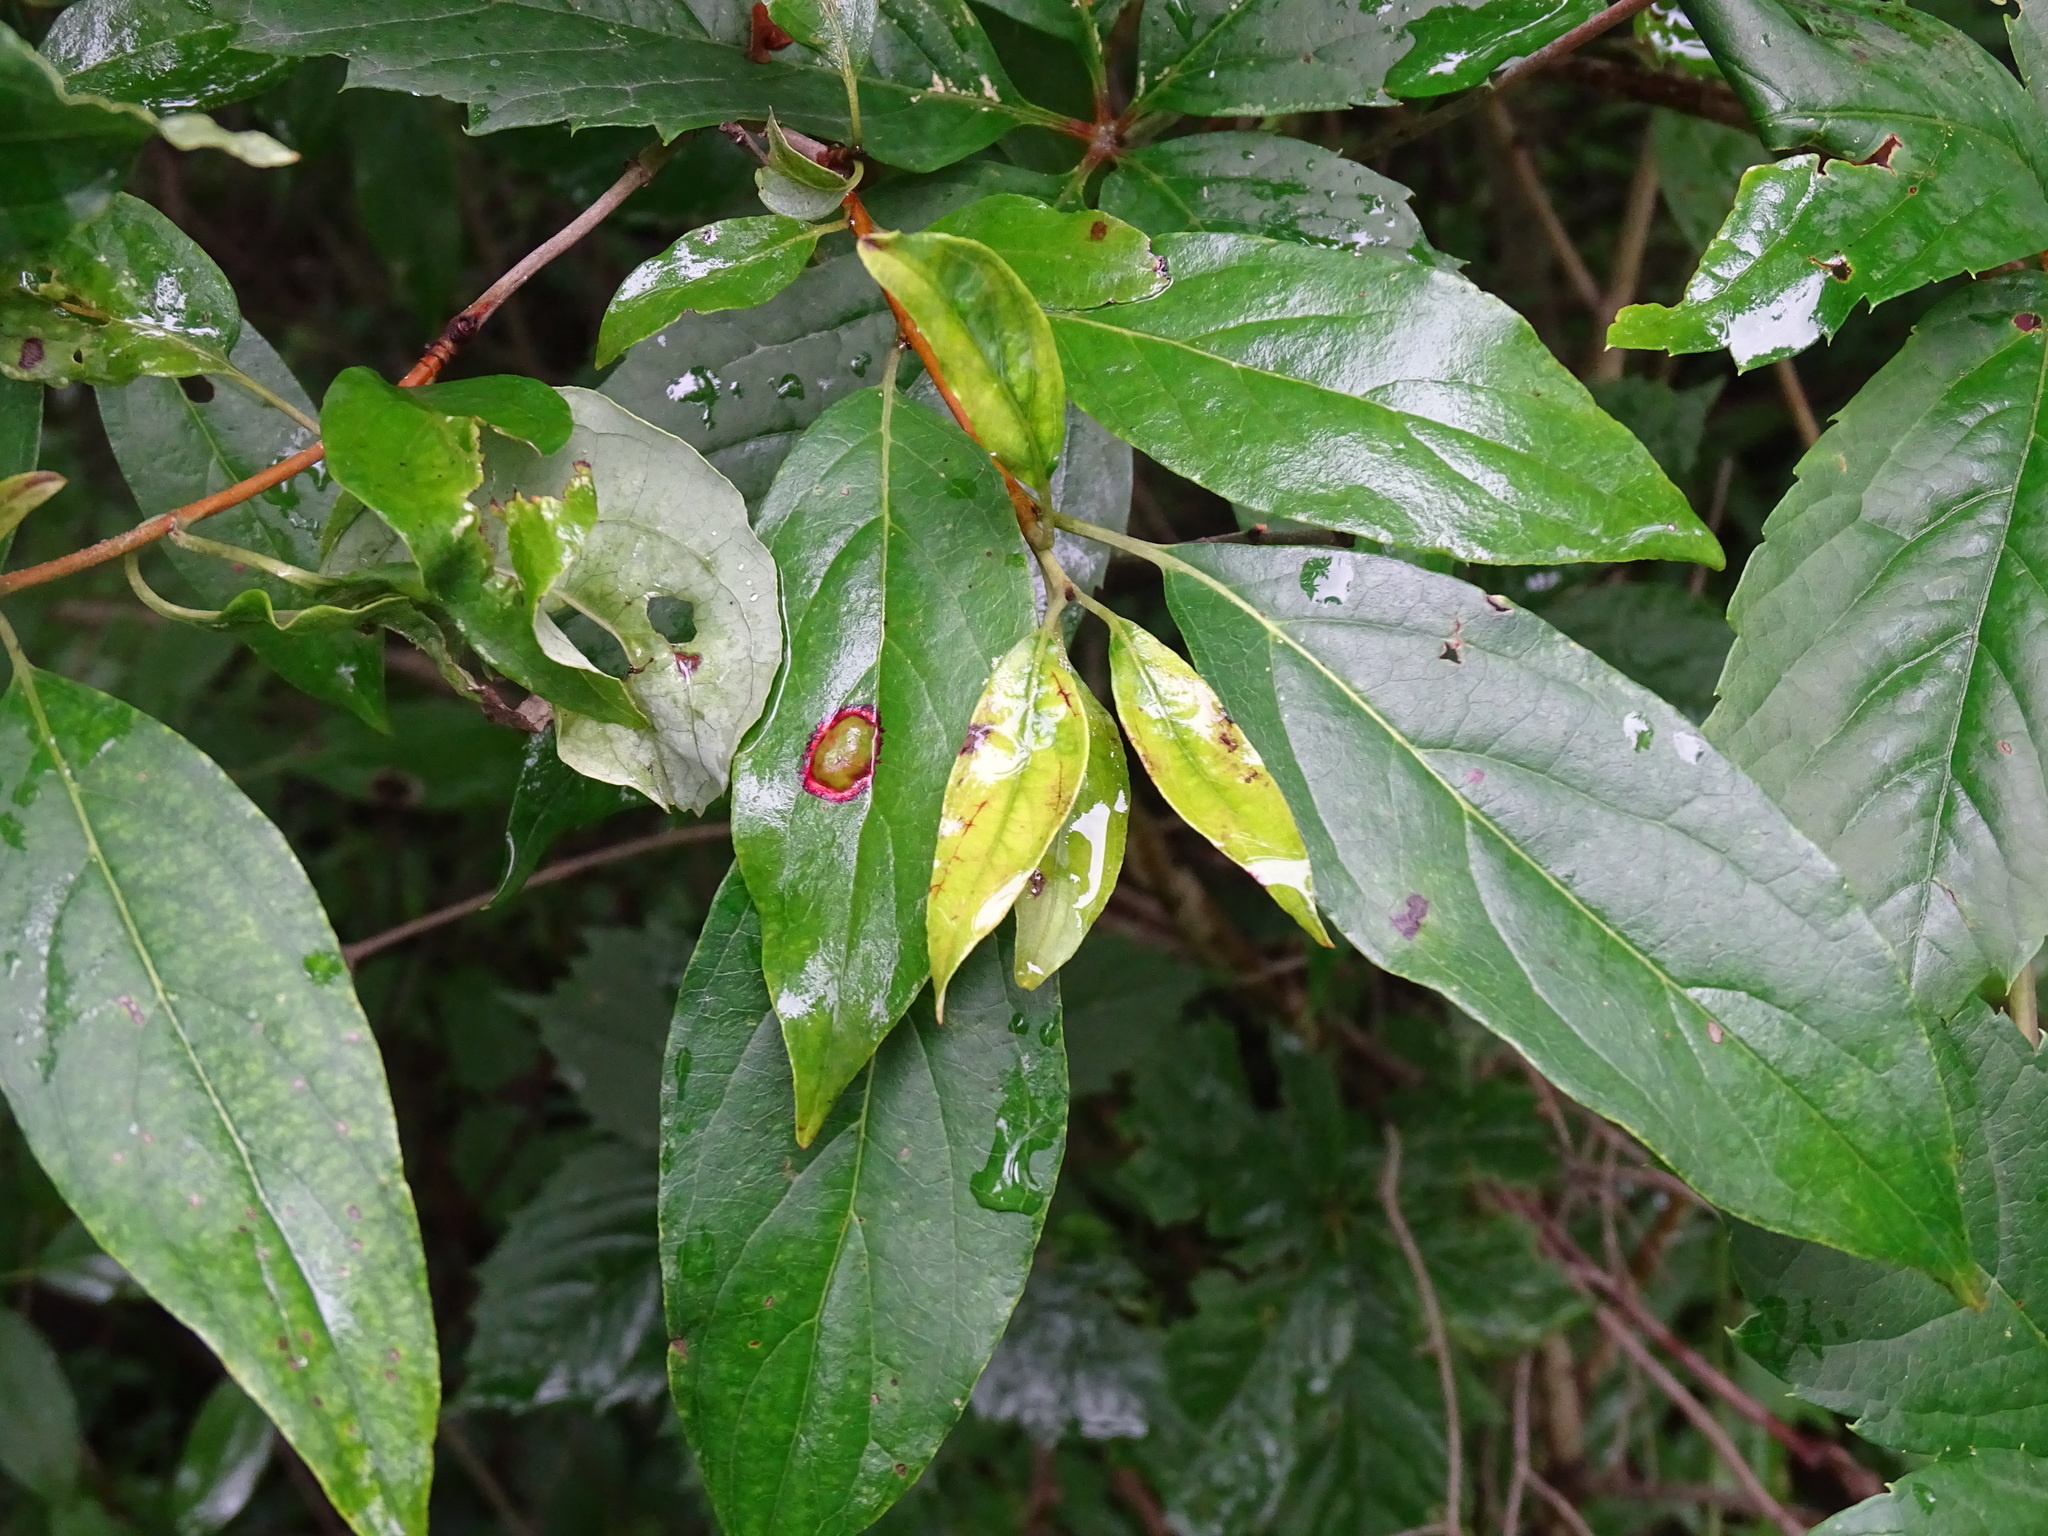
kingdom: Animalia
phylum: Arthropoda
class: Insecta
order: Diptera
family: Cecidomyiidae
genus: Parallelodiplosis
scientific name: Parallelodiplosis subtruncata
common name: Dogwood eyespot gall midge
